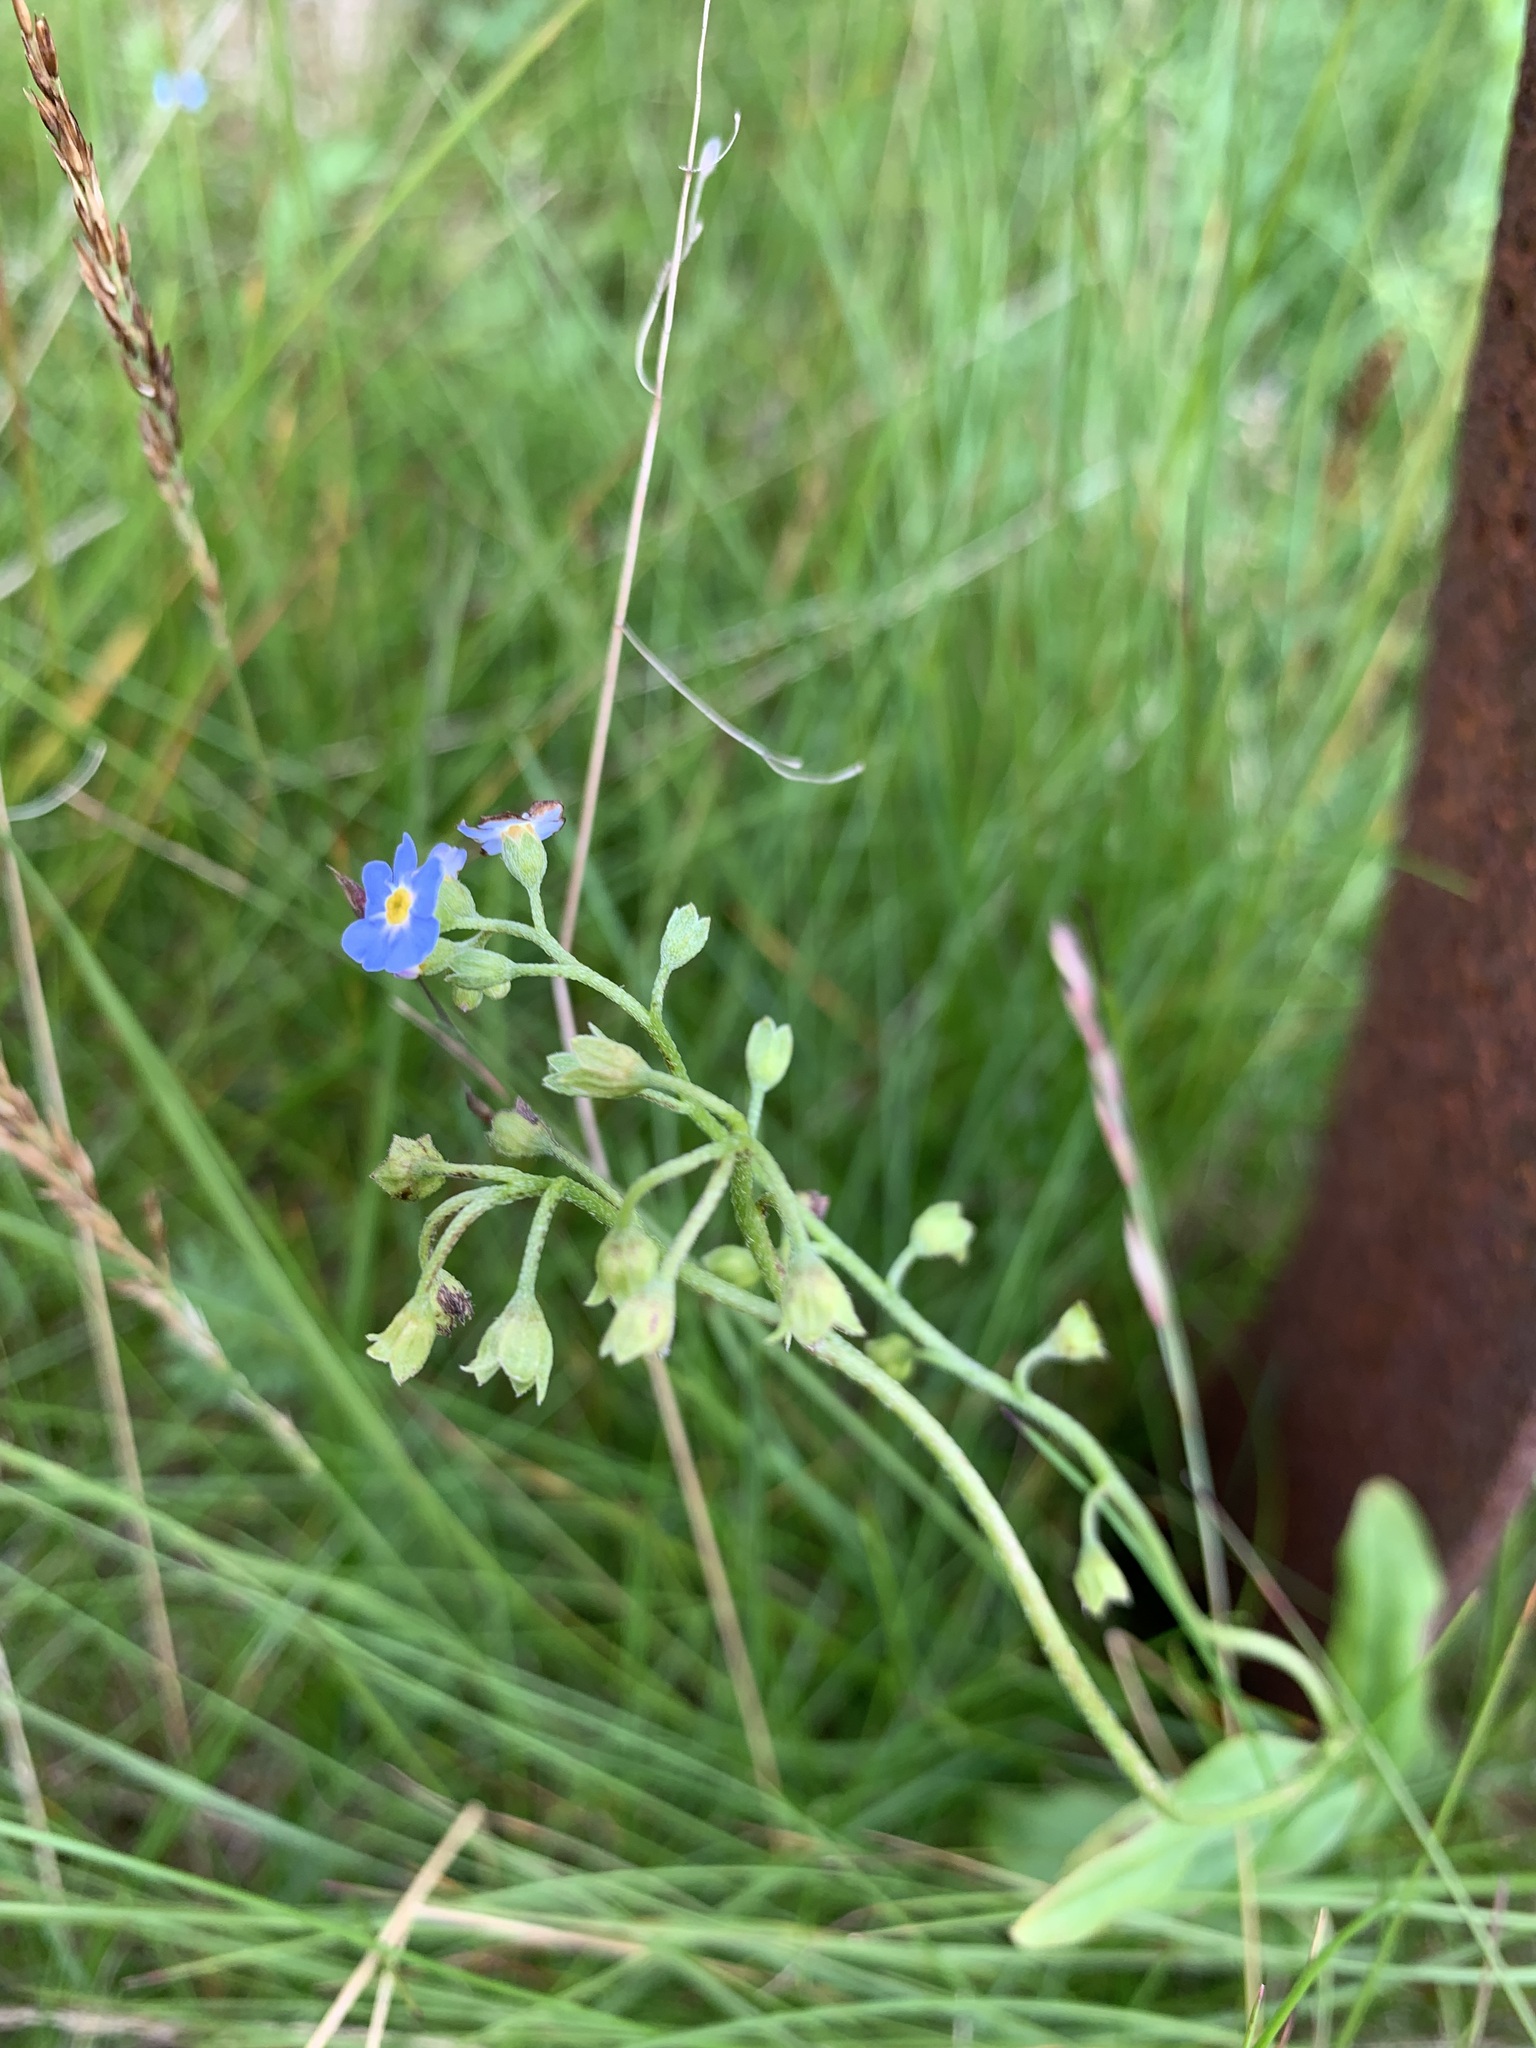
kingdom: Plantae
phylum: Tracheophyta
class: Magnoliopsida
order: Boraginales
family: Boraginaceae
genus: Myosotis
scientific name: Myosotis scorpioides
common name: Water forget-me-not
